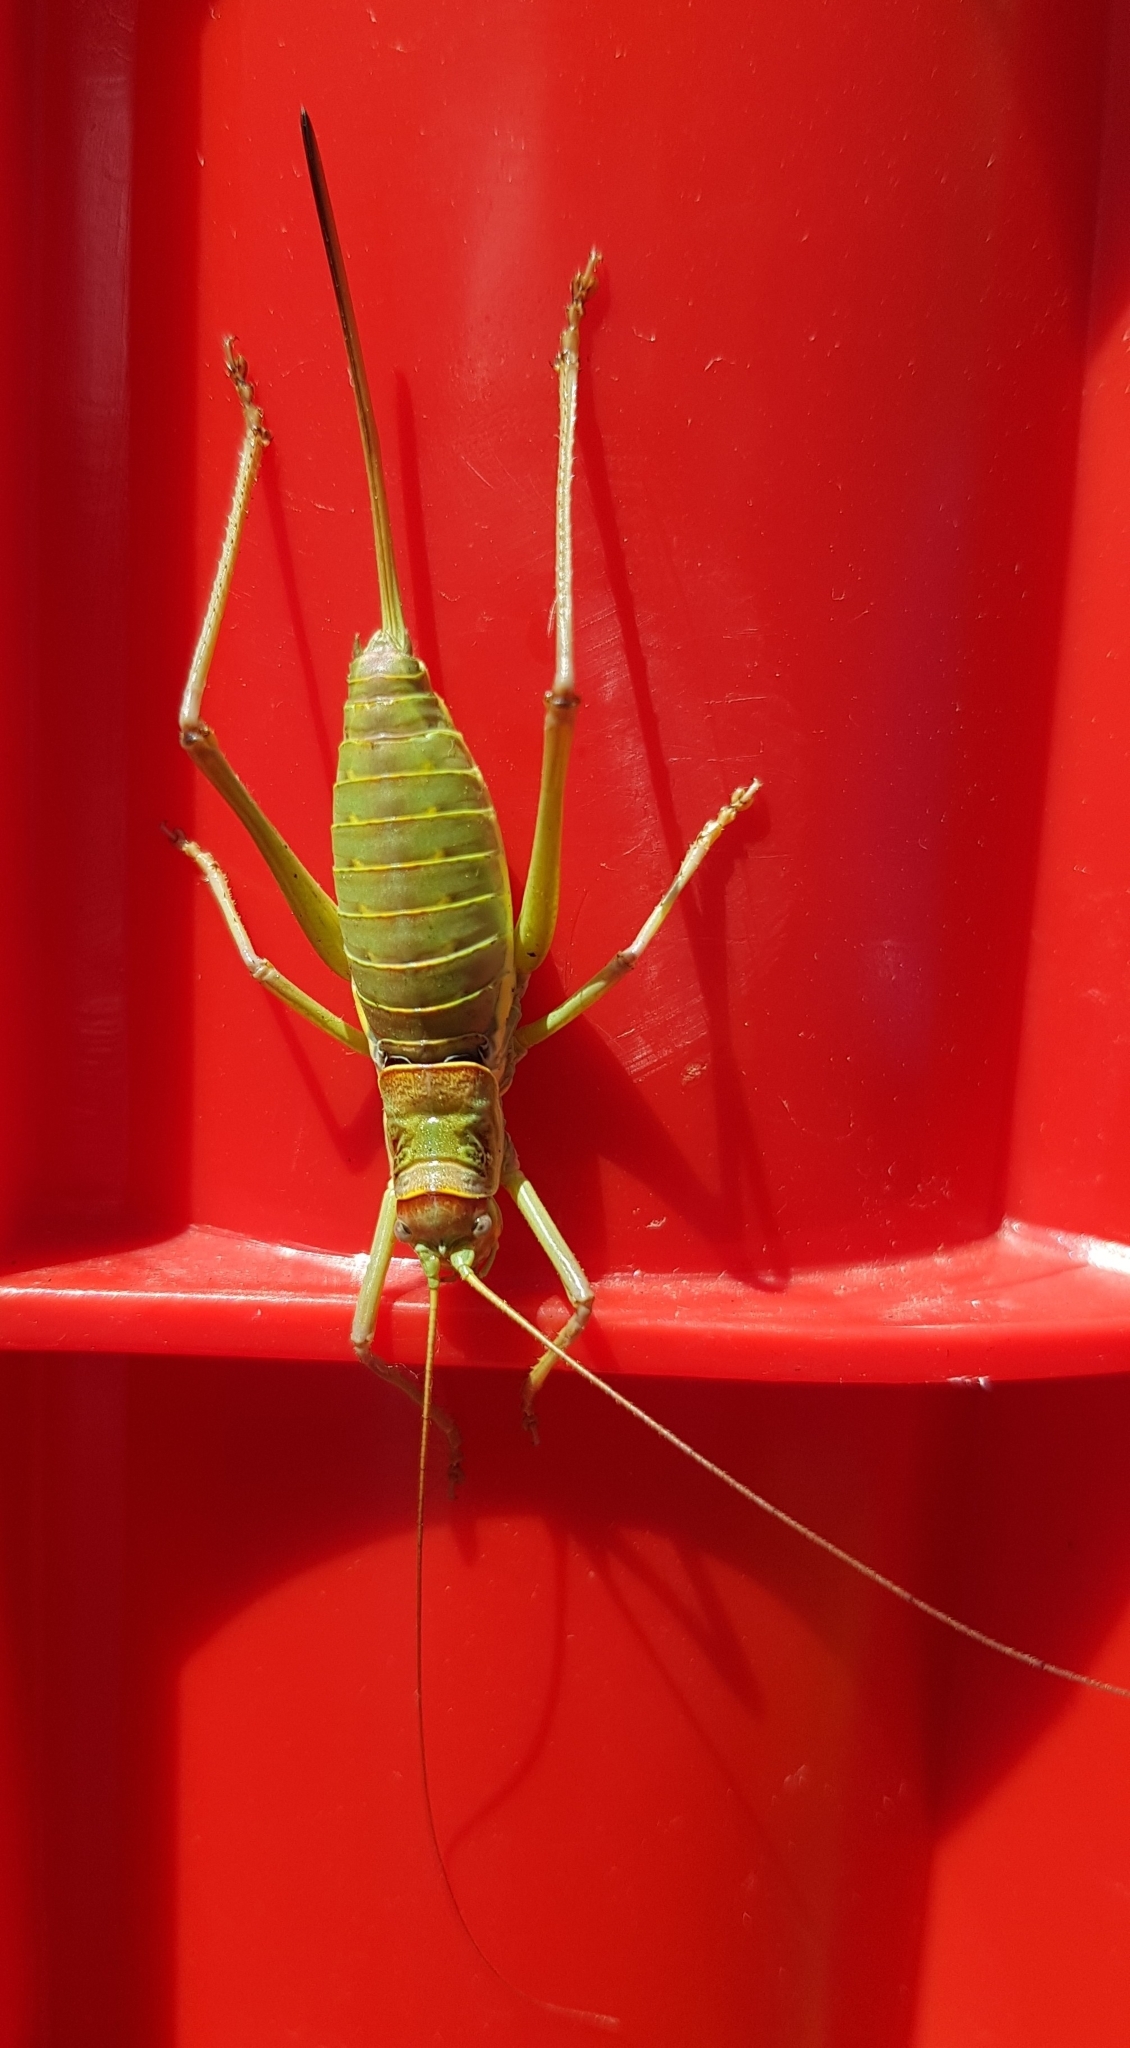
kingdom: Animalia
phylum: Arthropoda
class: Insecta
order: Orthoptera
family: Tettigoniidae
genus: Dinarippiger
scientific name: Dinarippiger discoidalis
